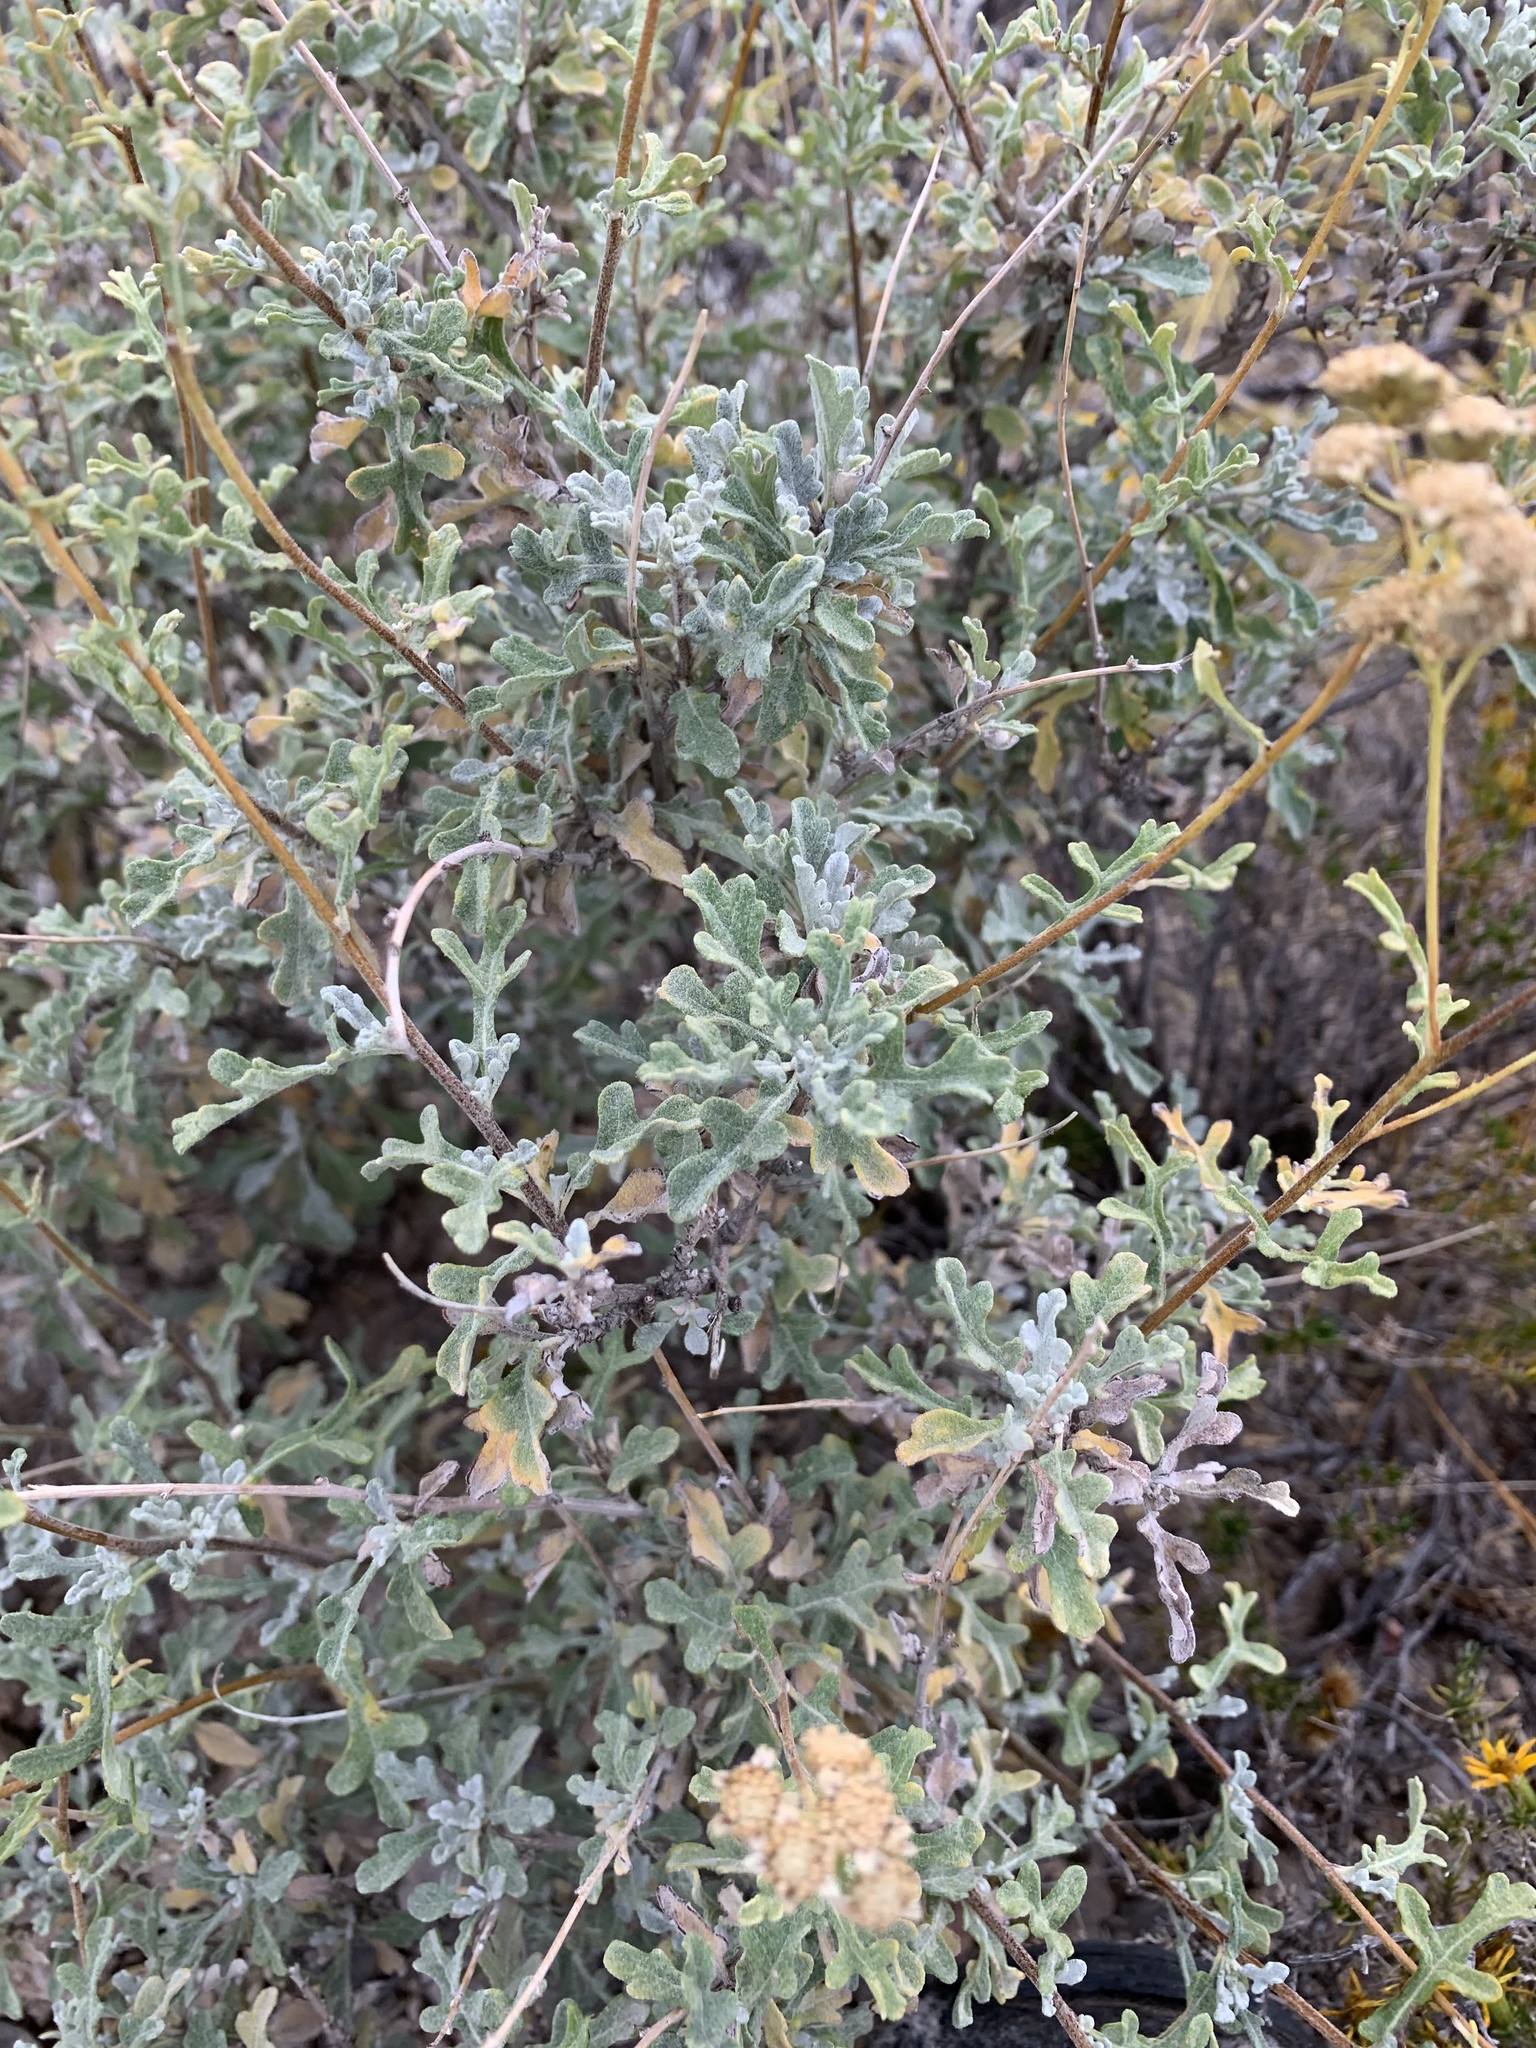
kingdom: Plantae
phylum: Tracheophyta
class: Magnoliopsida
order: Asterales
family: Asteraceae
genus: Parthenium
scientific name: Parthenium incanum
